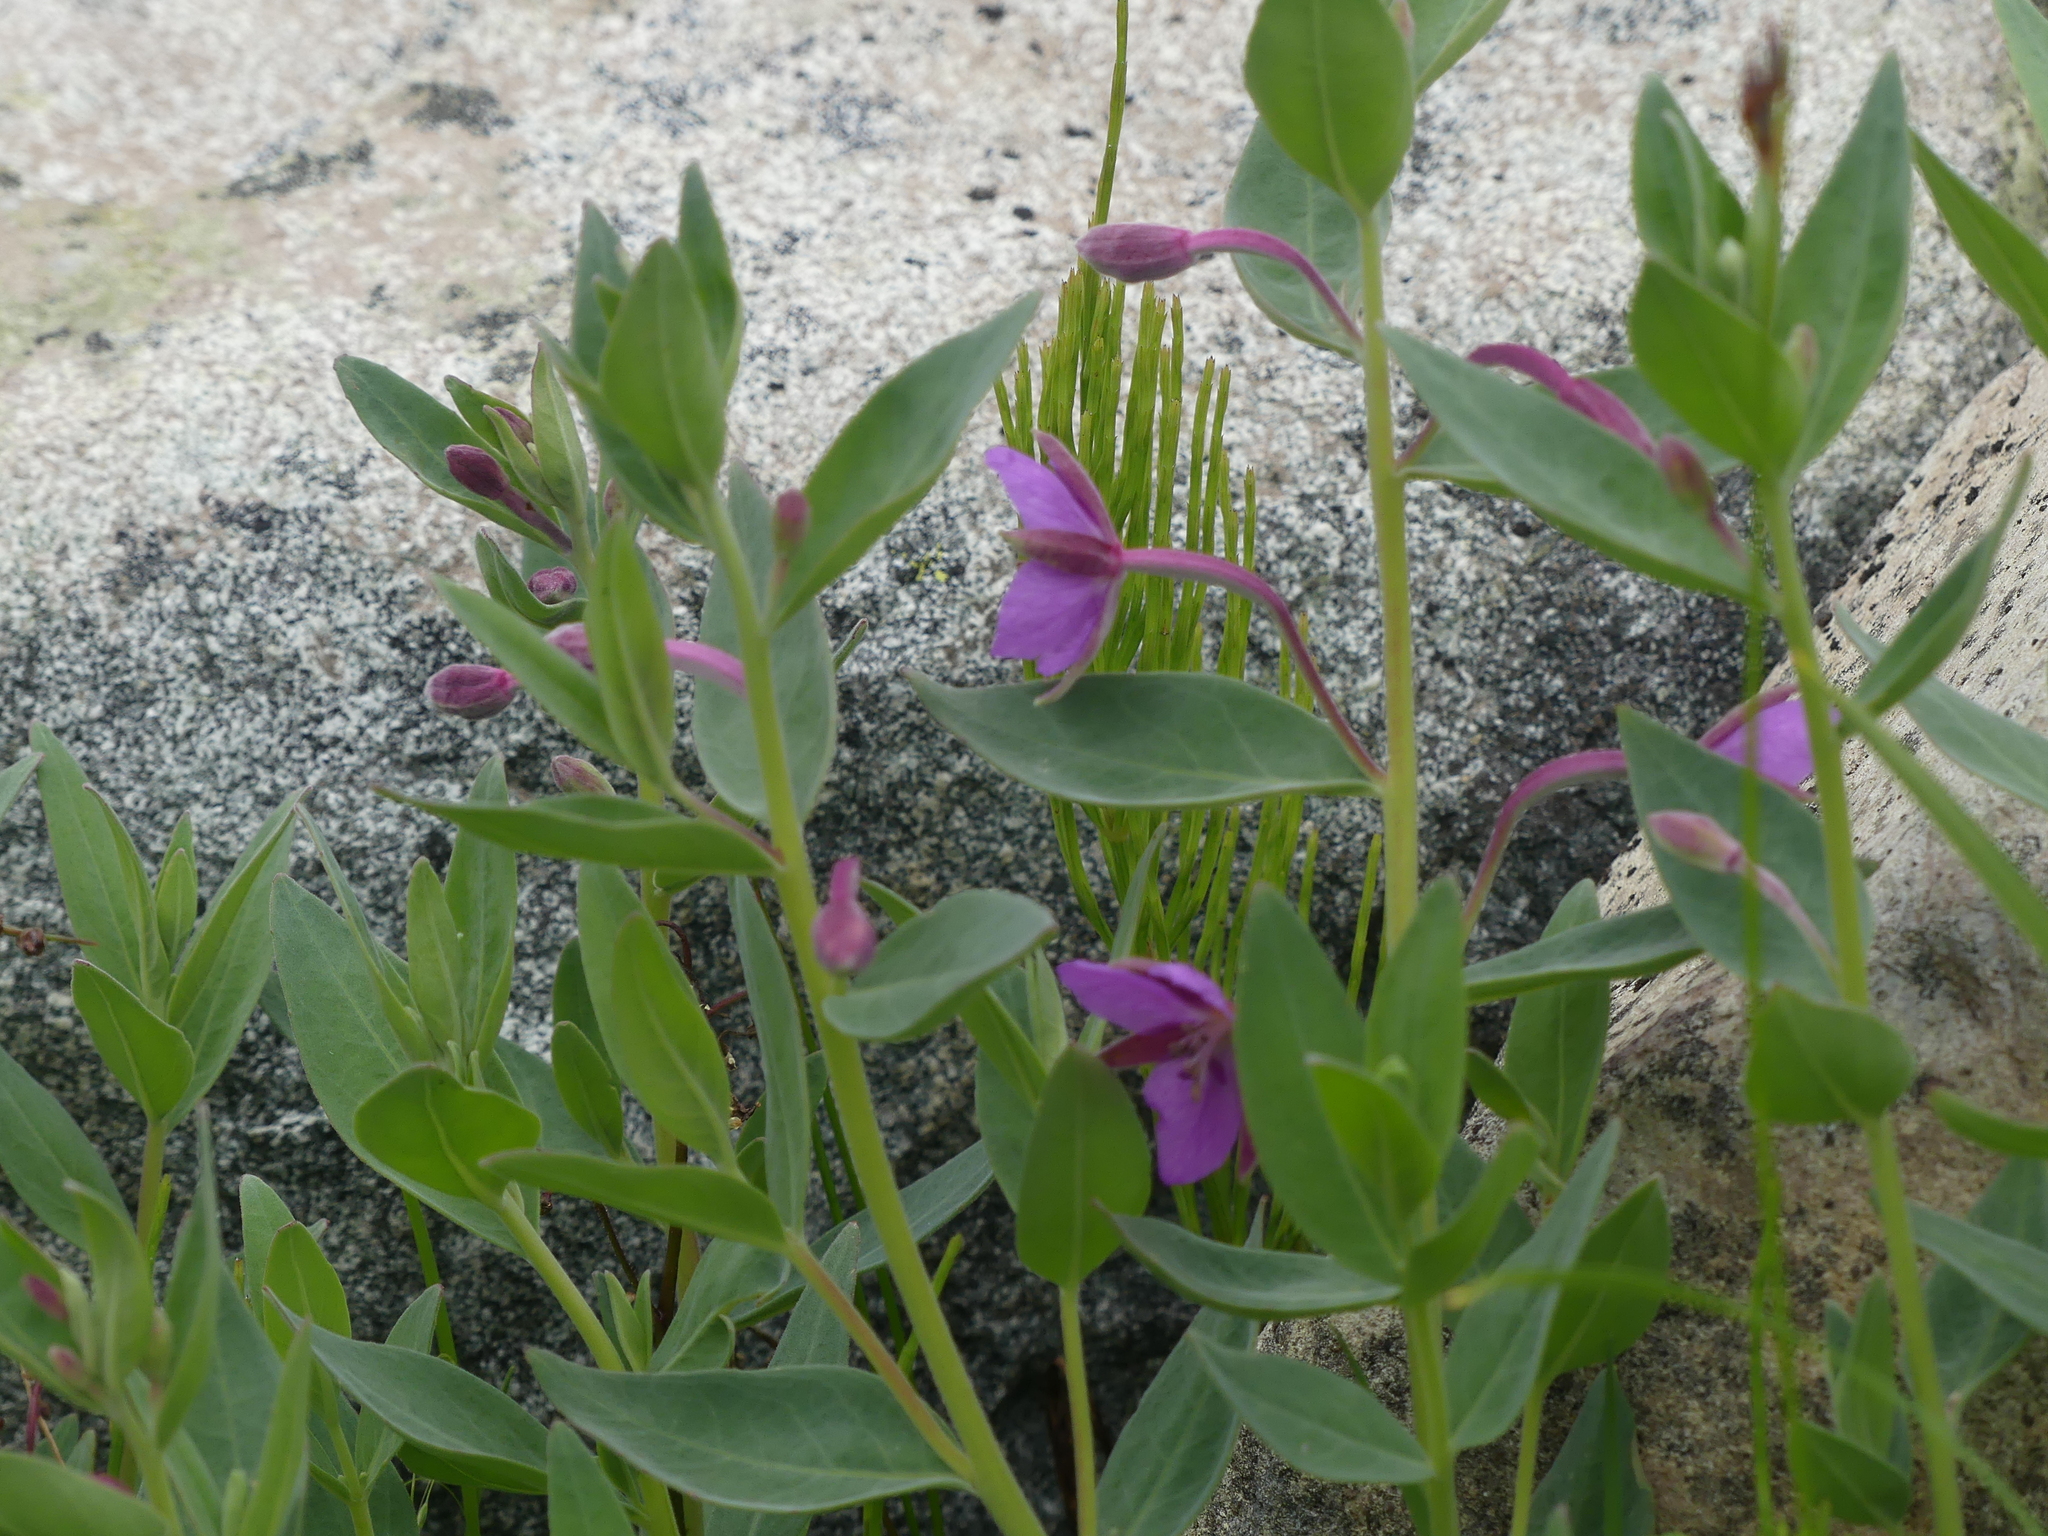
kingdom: Plantae
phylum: Tracheophyta
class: Magnoliopsida
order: Myrtales
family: Onagraceae
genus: Chamaenerion
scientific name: Chamaenerion latifolium
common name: Dwarf fireweed
